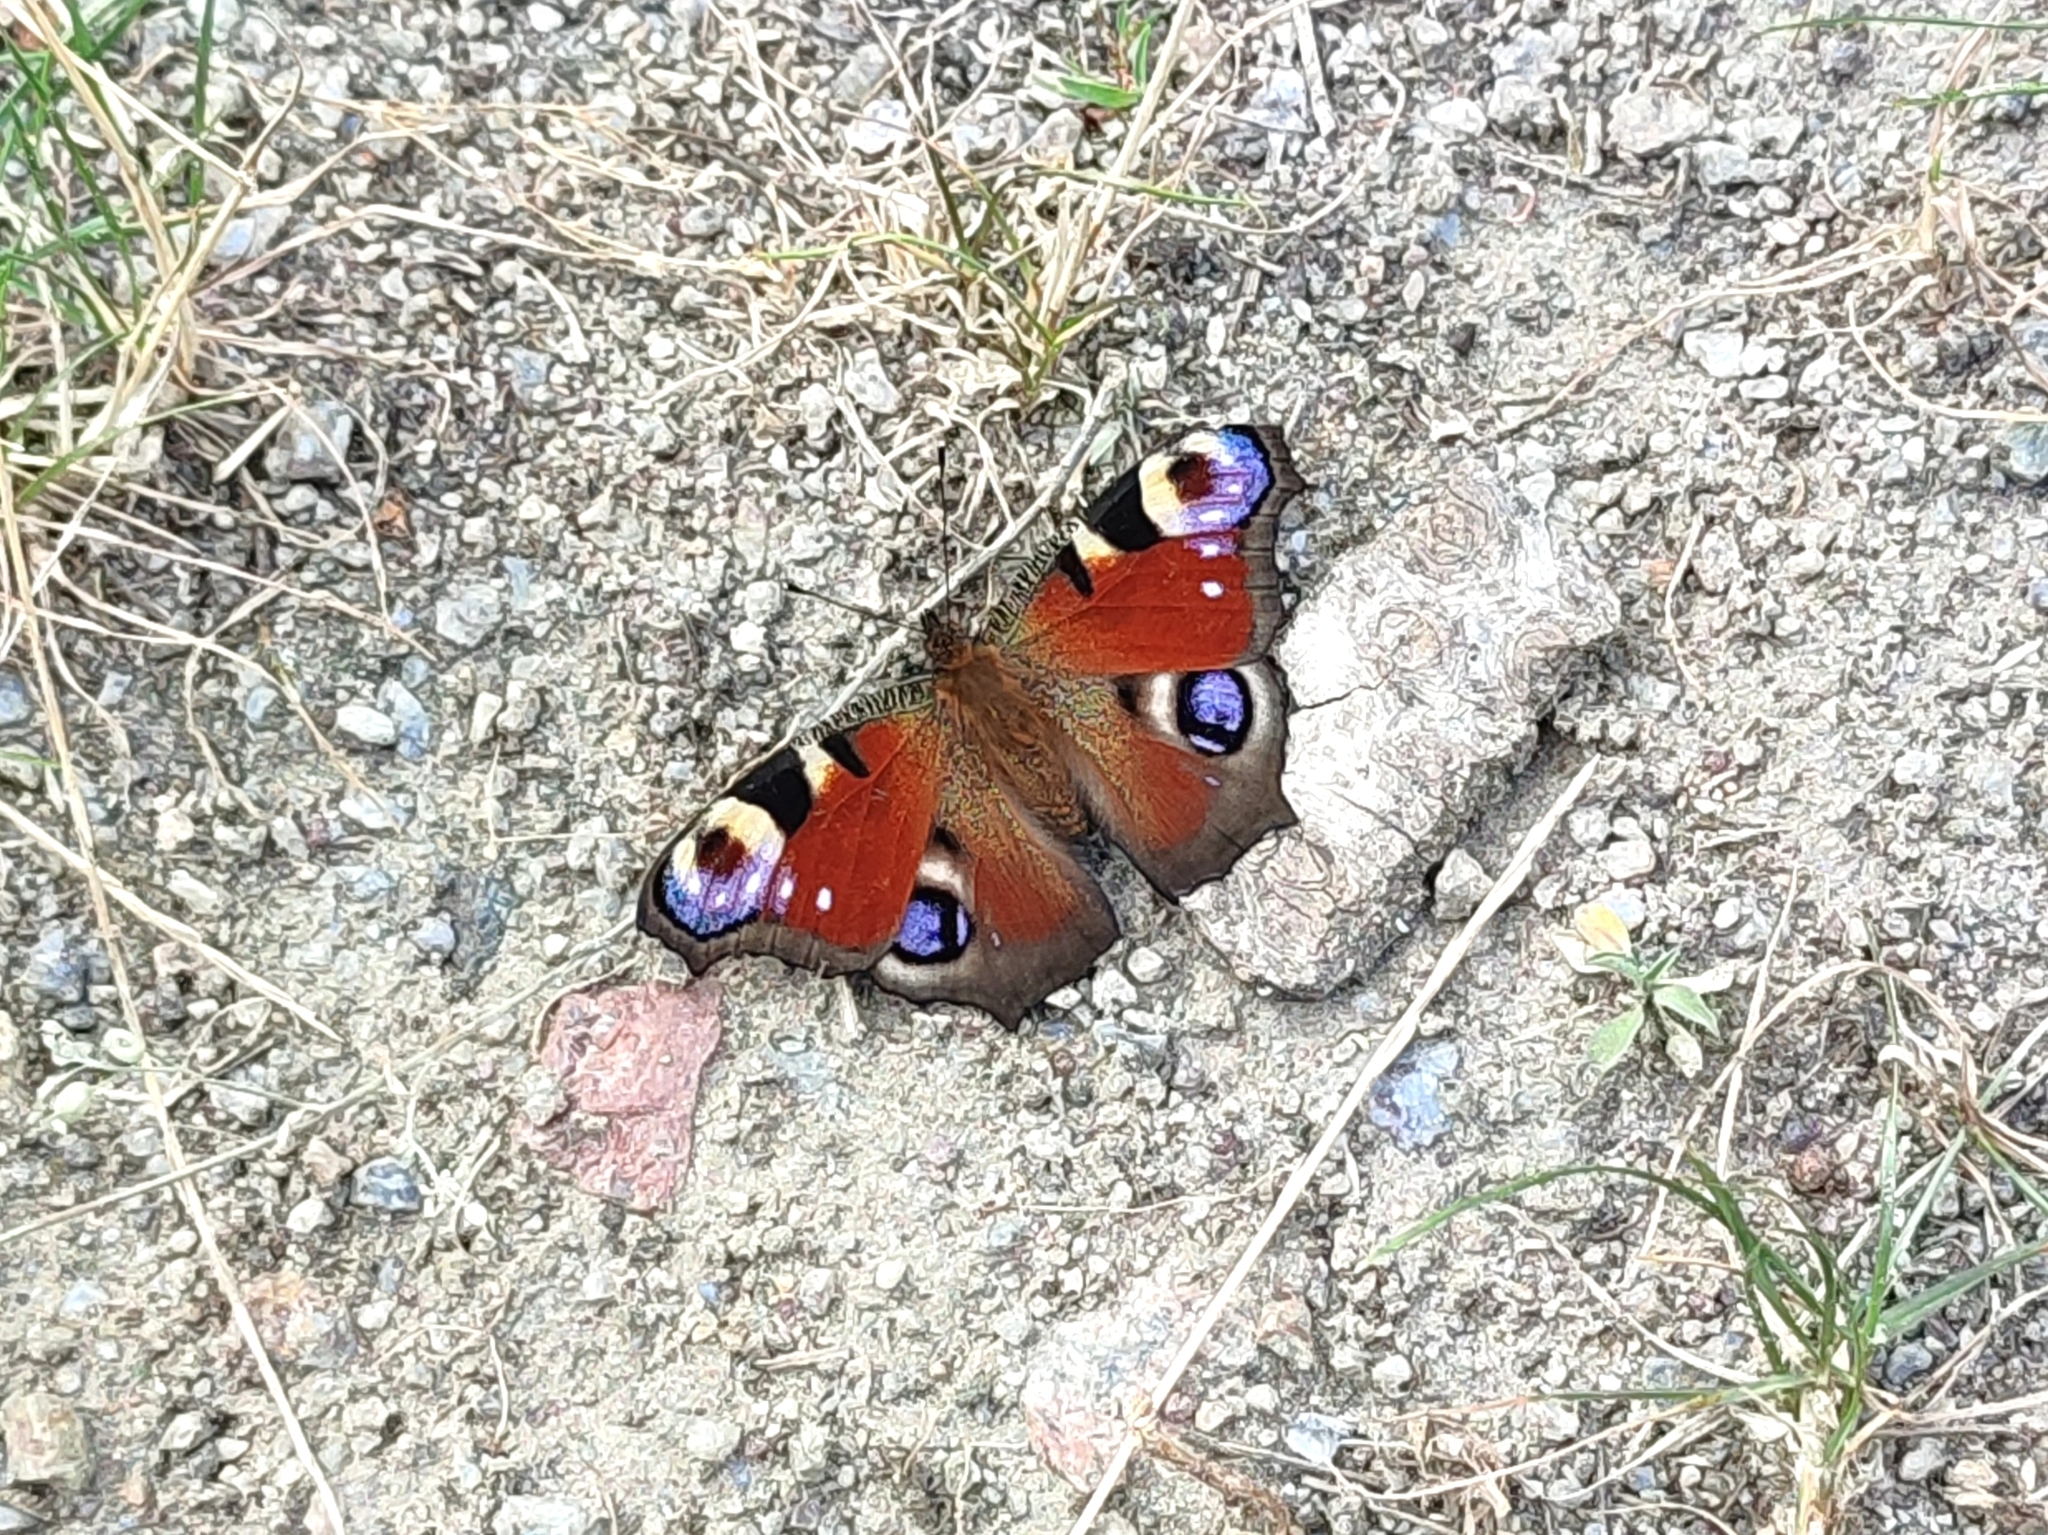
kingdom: Animalia
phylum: Arthropoda
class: Insecta
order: Lepidoptera
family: Nymphalidae
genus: Aglais
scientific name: Aglais io
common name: Peacock
